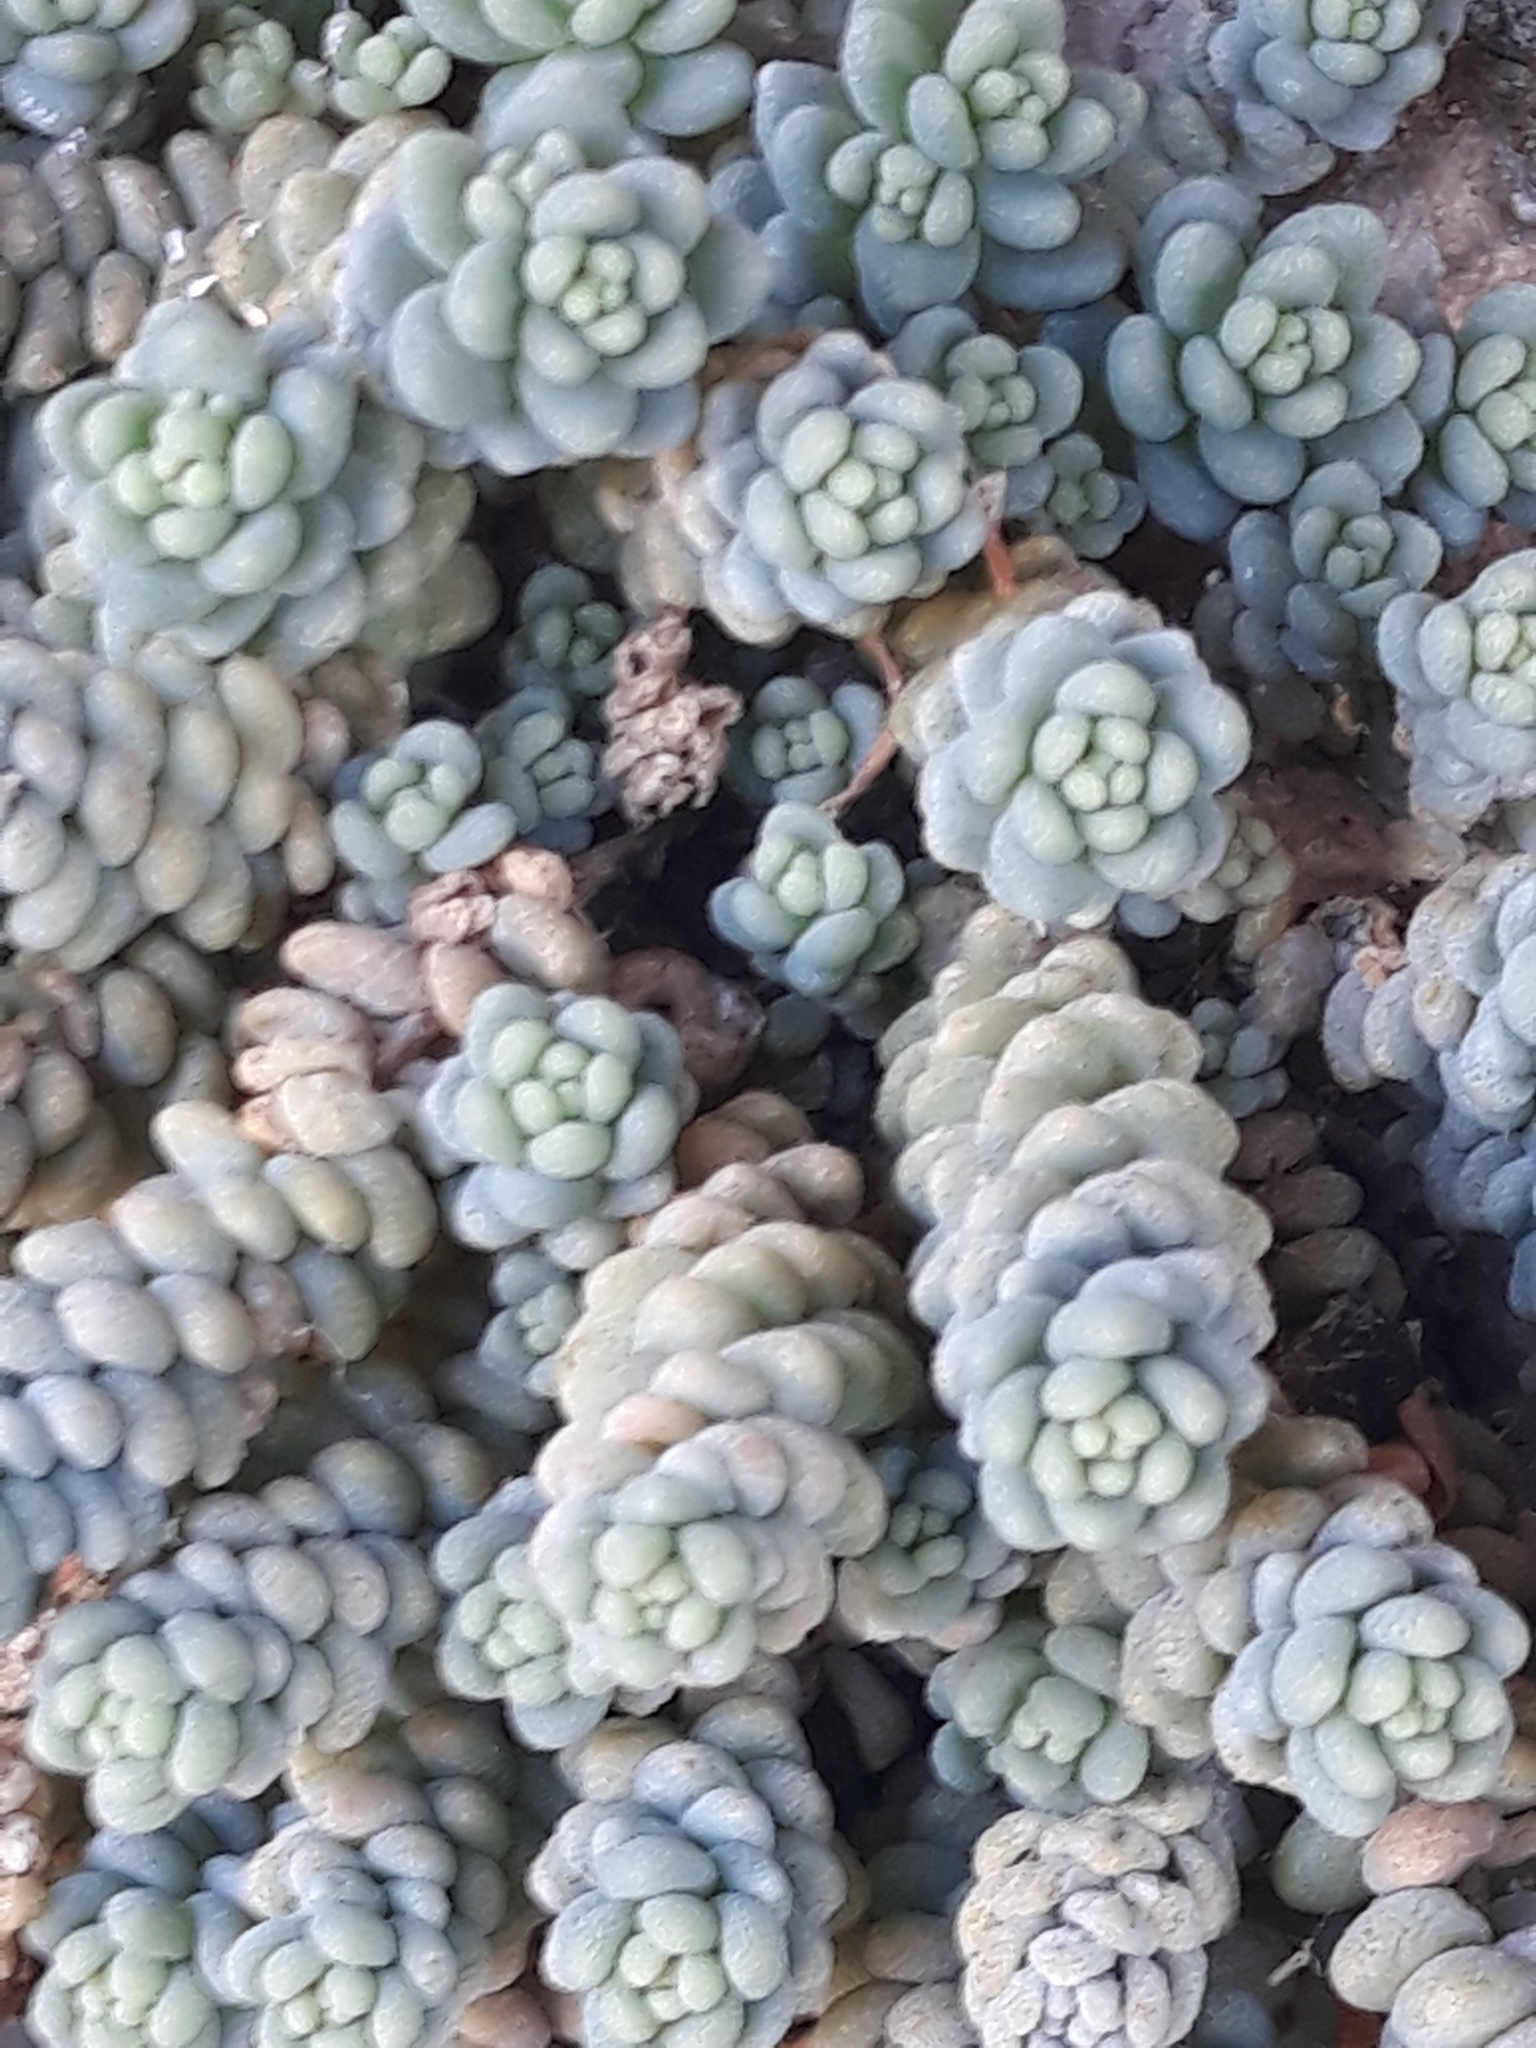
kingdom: Plantae
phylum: Tracheophyta
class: Magnoliopsida
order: Saxifragales
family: Crassulaceae
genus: Sedum
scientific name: Sedum dasyphyllum
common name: Thick-leaf stonecrop
